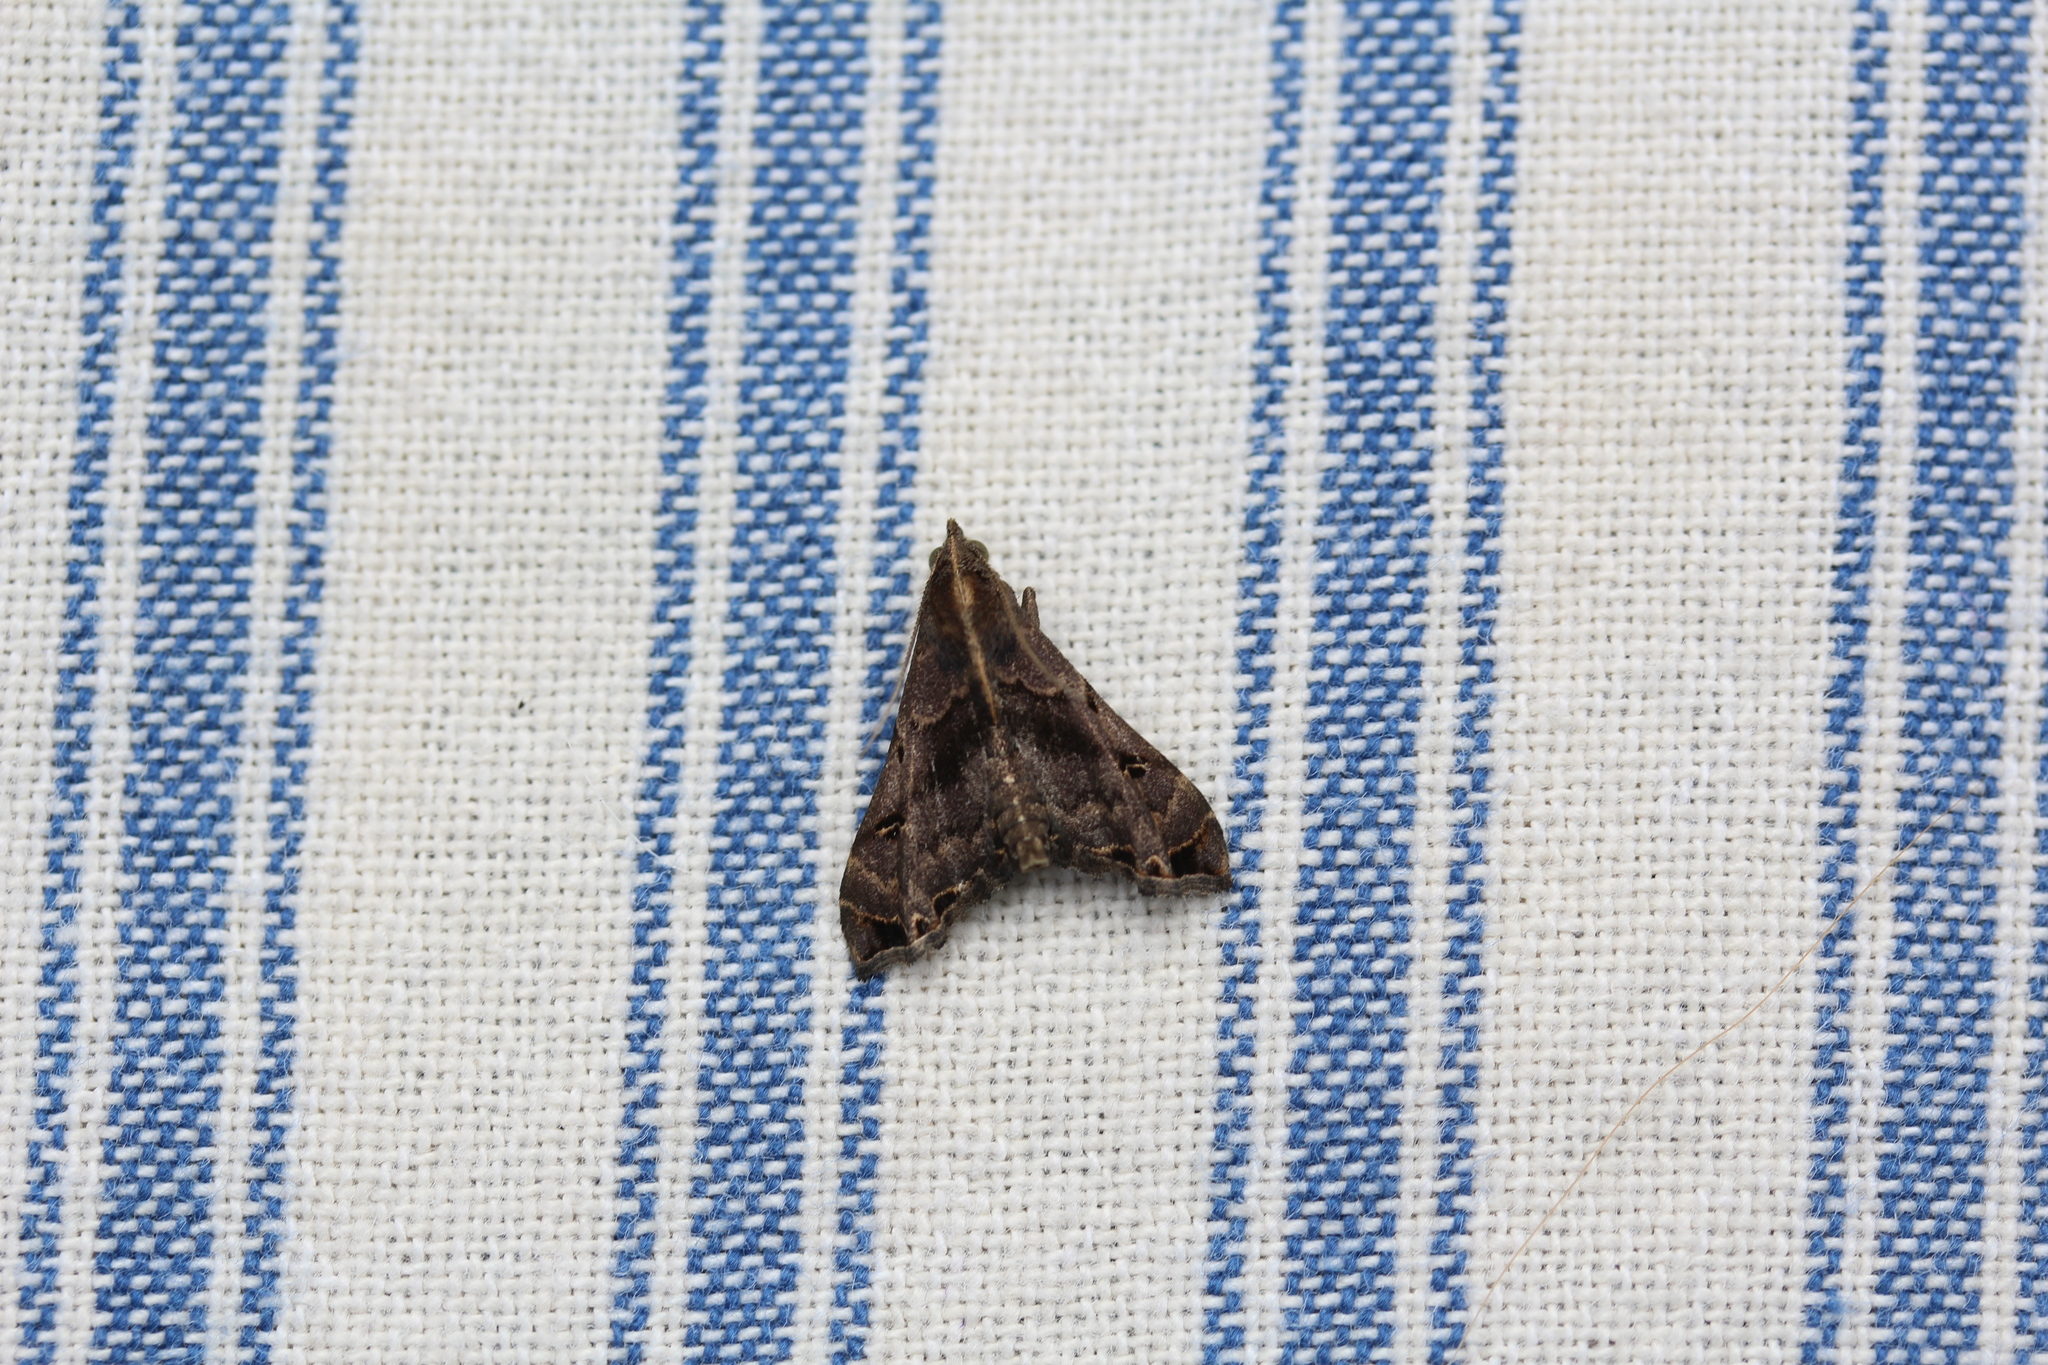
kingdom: Animalia
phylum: Arthropoda
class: Insecta
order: Lepidoptera
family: Erebidae
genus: Palthis
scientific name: Palthis asopialis
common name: Faint-spotted palthis moth
